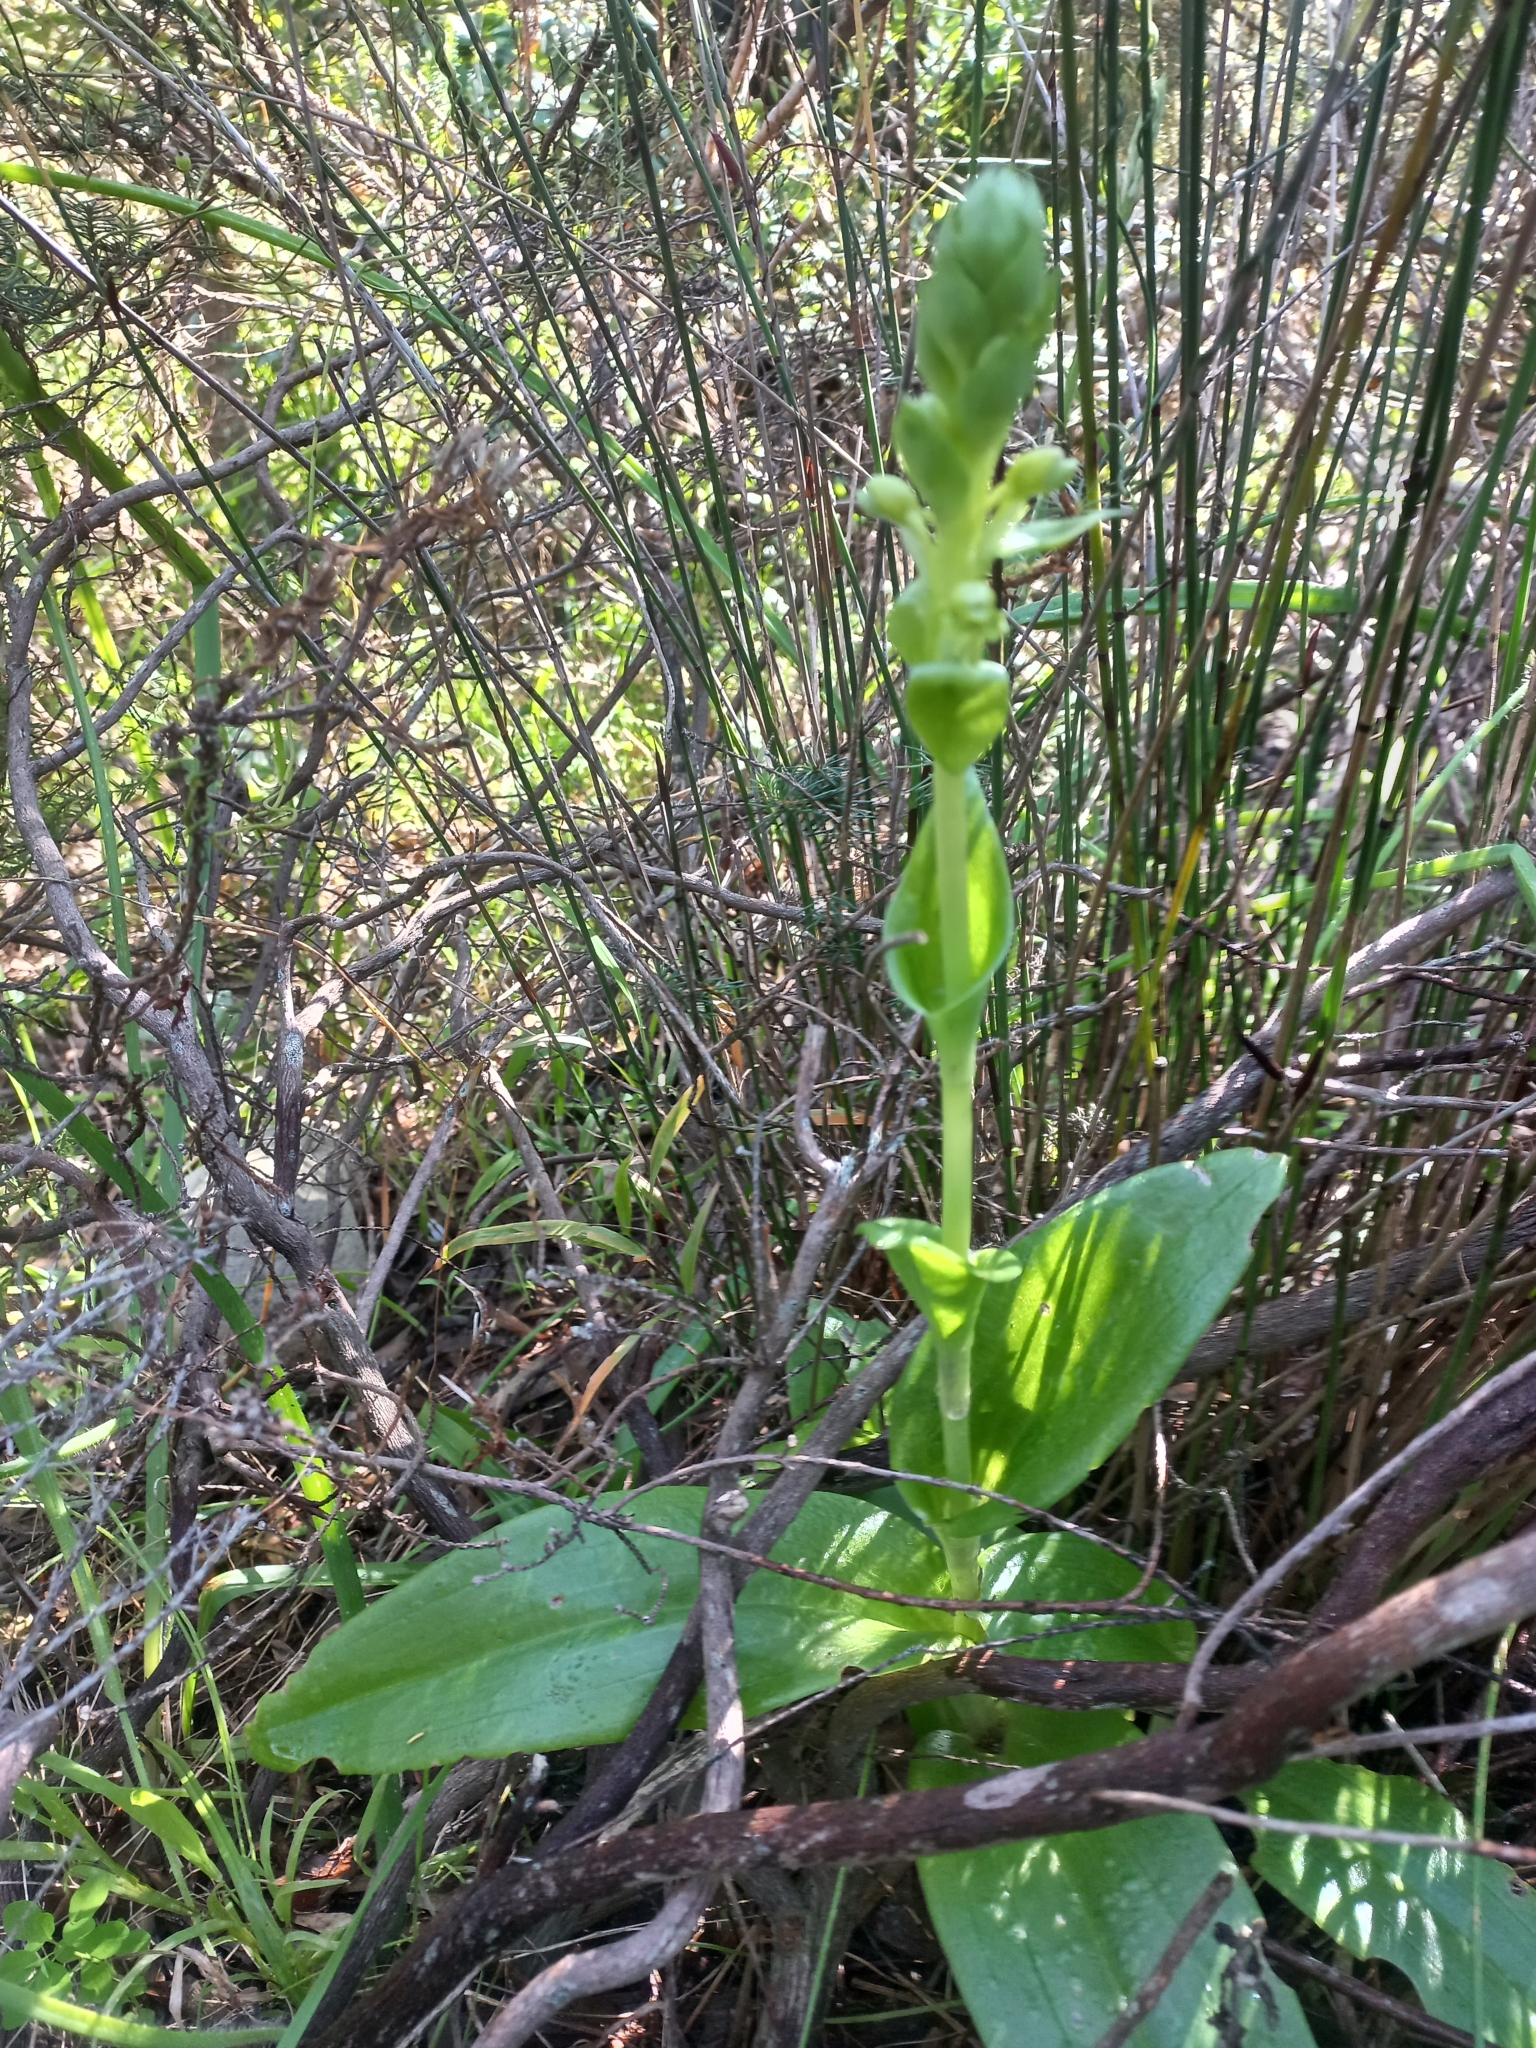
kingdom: Plantae
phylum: Tracheophyta
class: Liliopsida
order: Asparagales
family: Orchidaceae
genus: Satyrium
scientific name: Satyrium odorum
